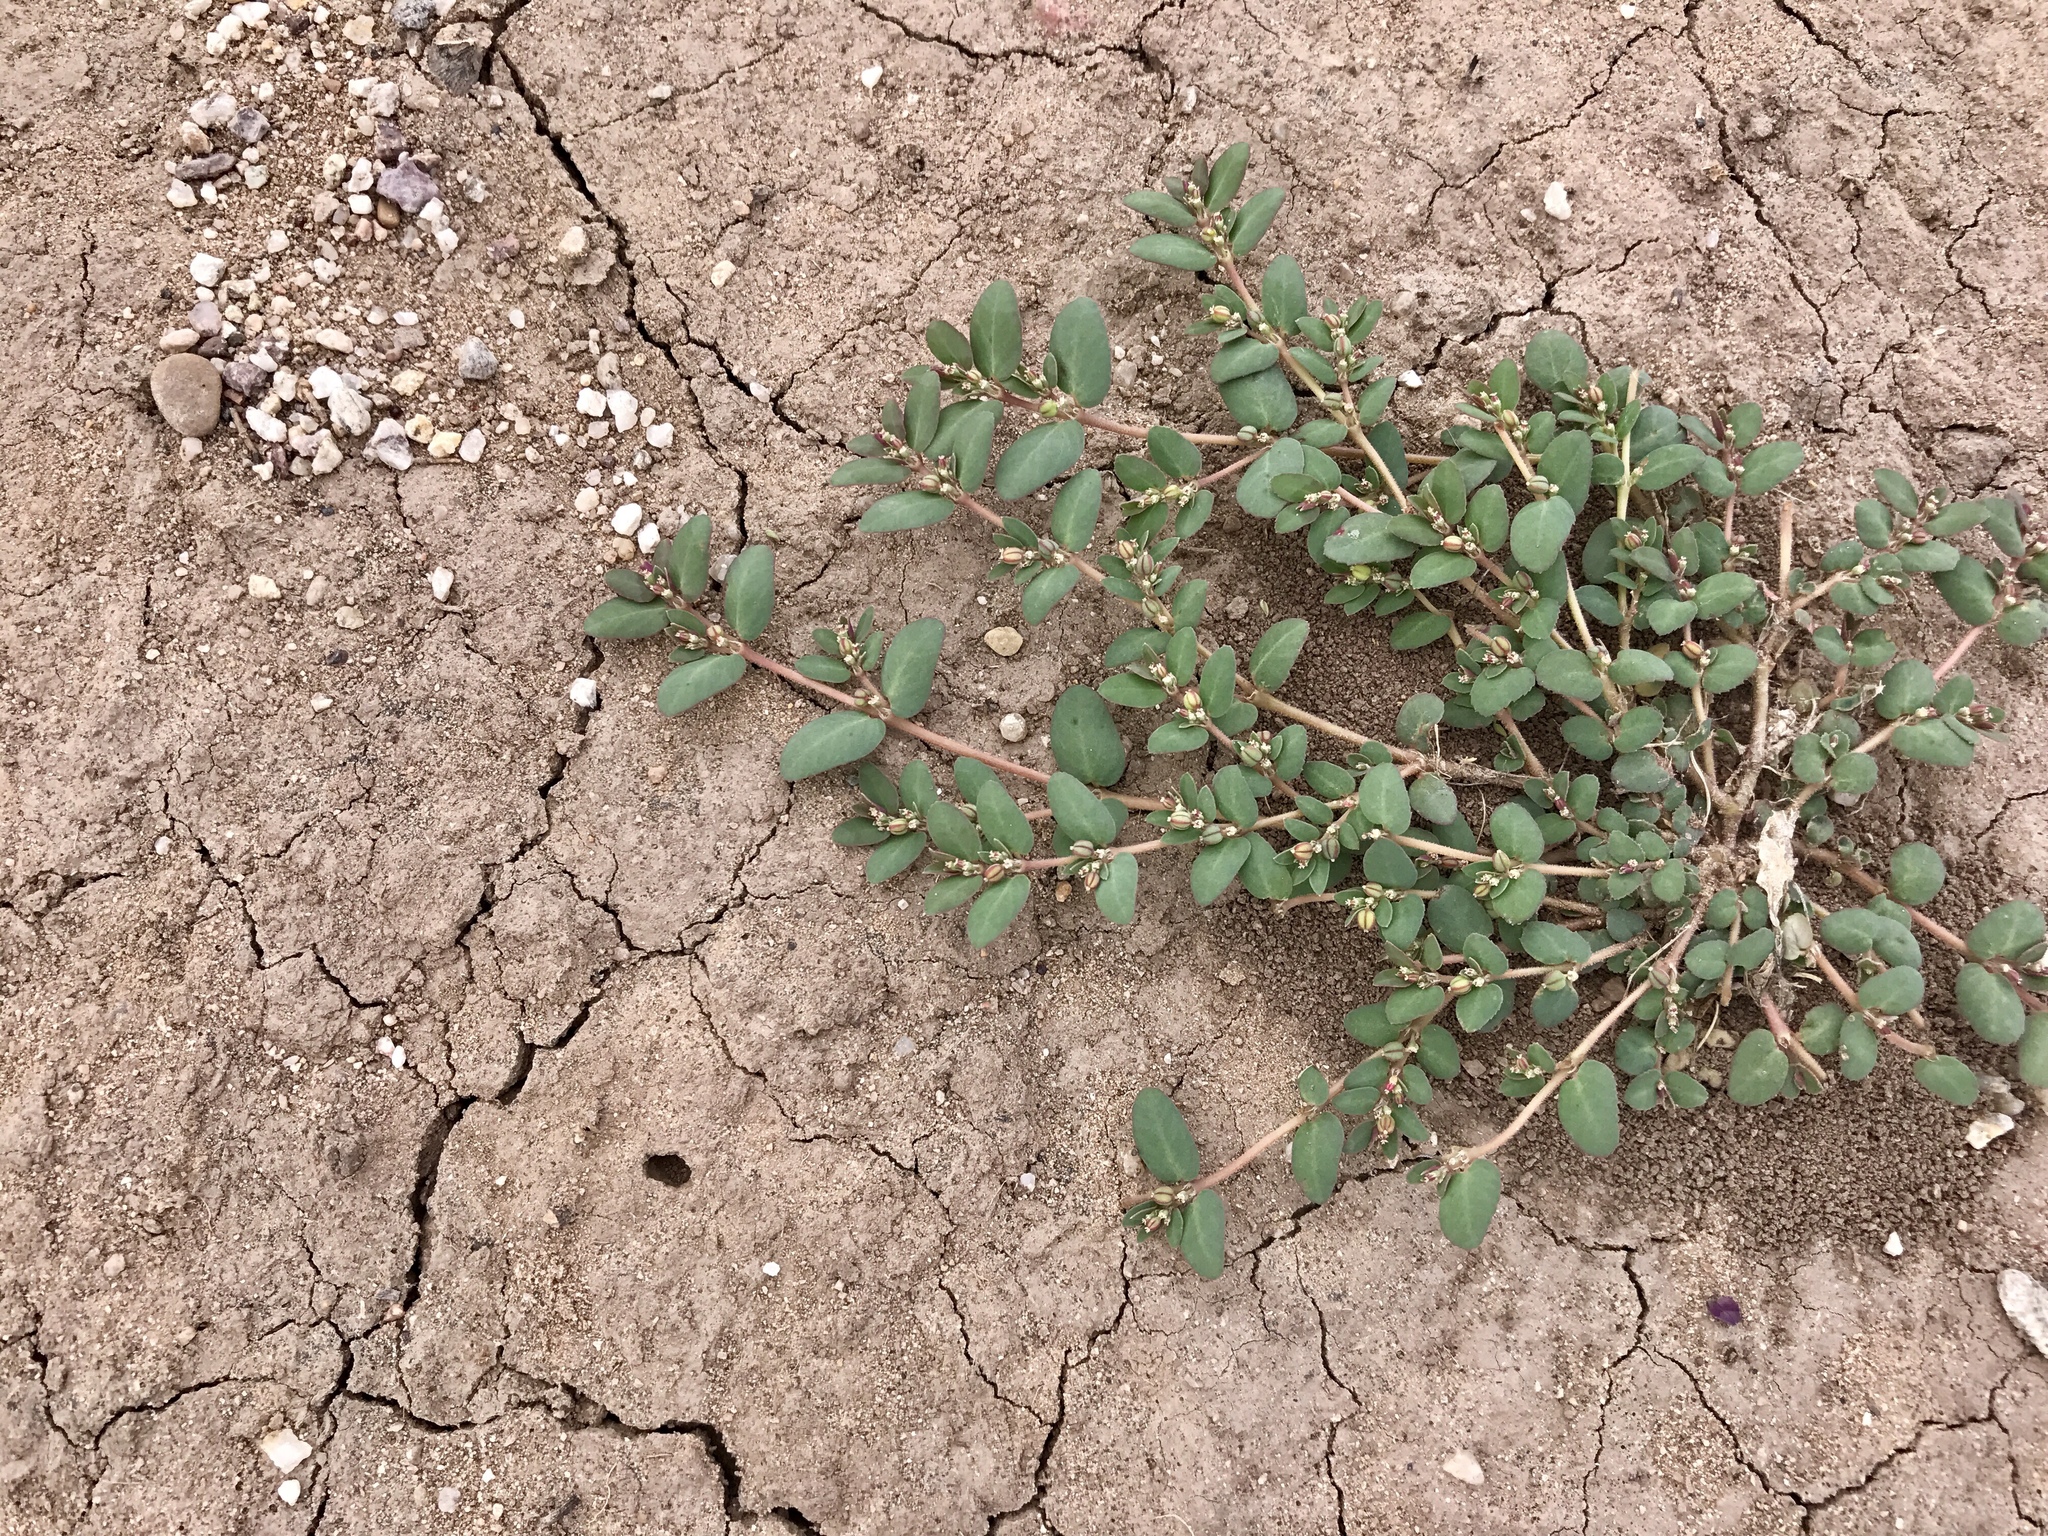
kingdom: Plantae
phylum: Tracheophyta
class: Magnoliopsida
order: Malpighiales
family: Euphorbiaceae
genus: Euphorbia
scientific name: Euphorbia abramsiana
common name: Abram's spurge
